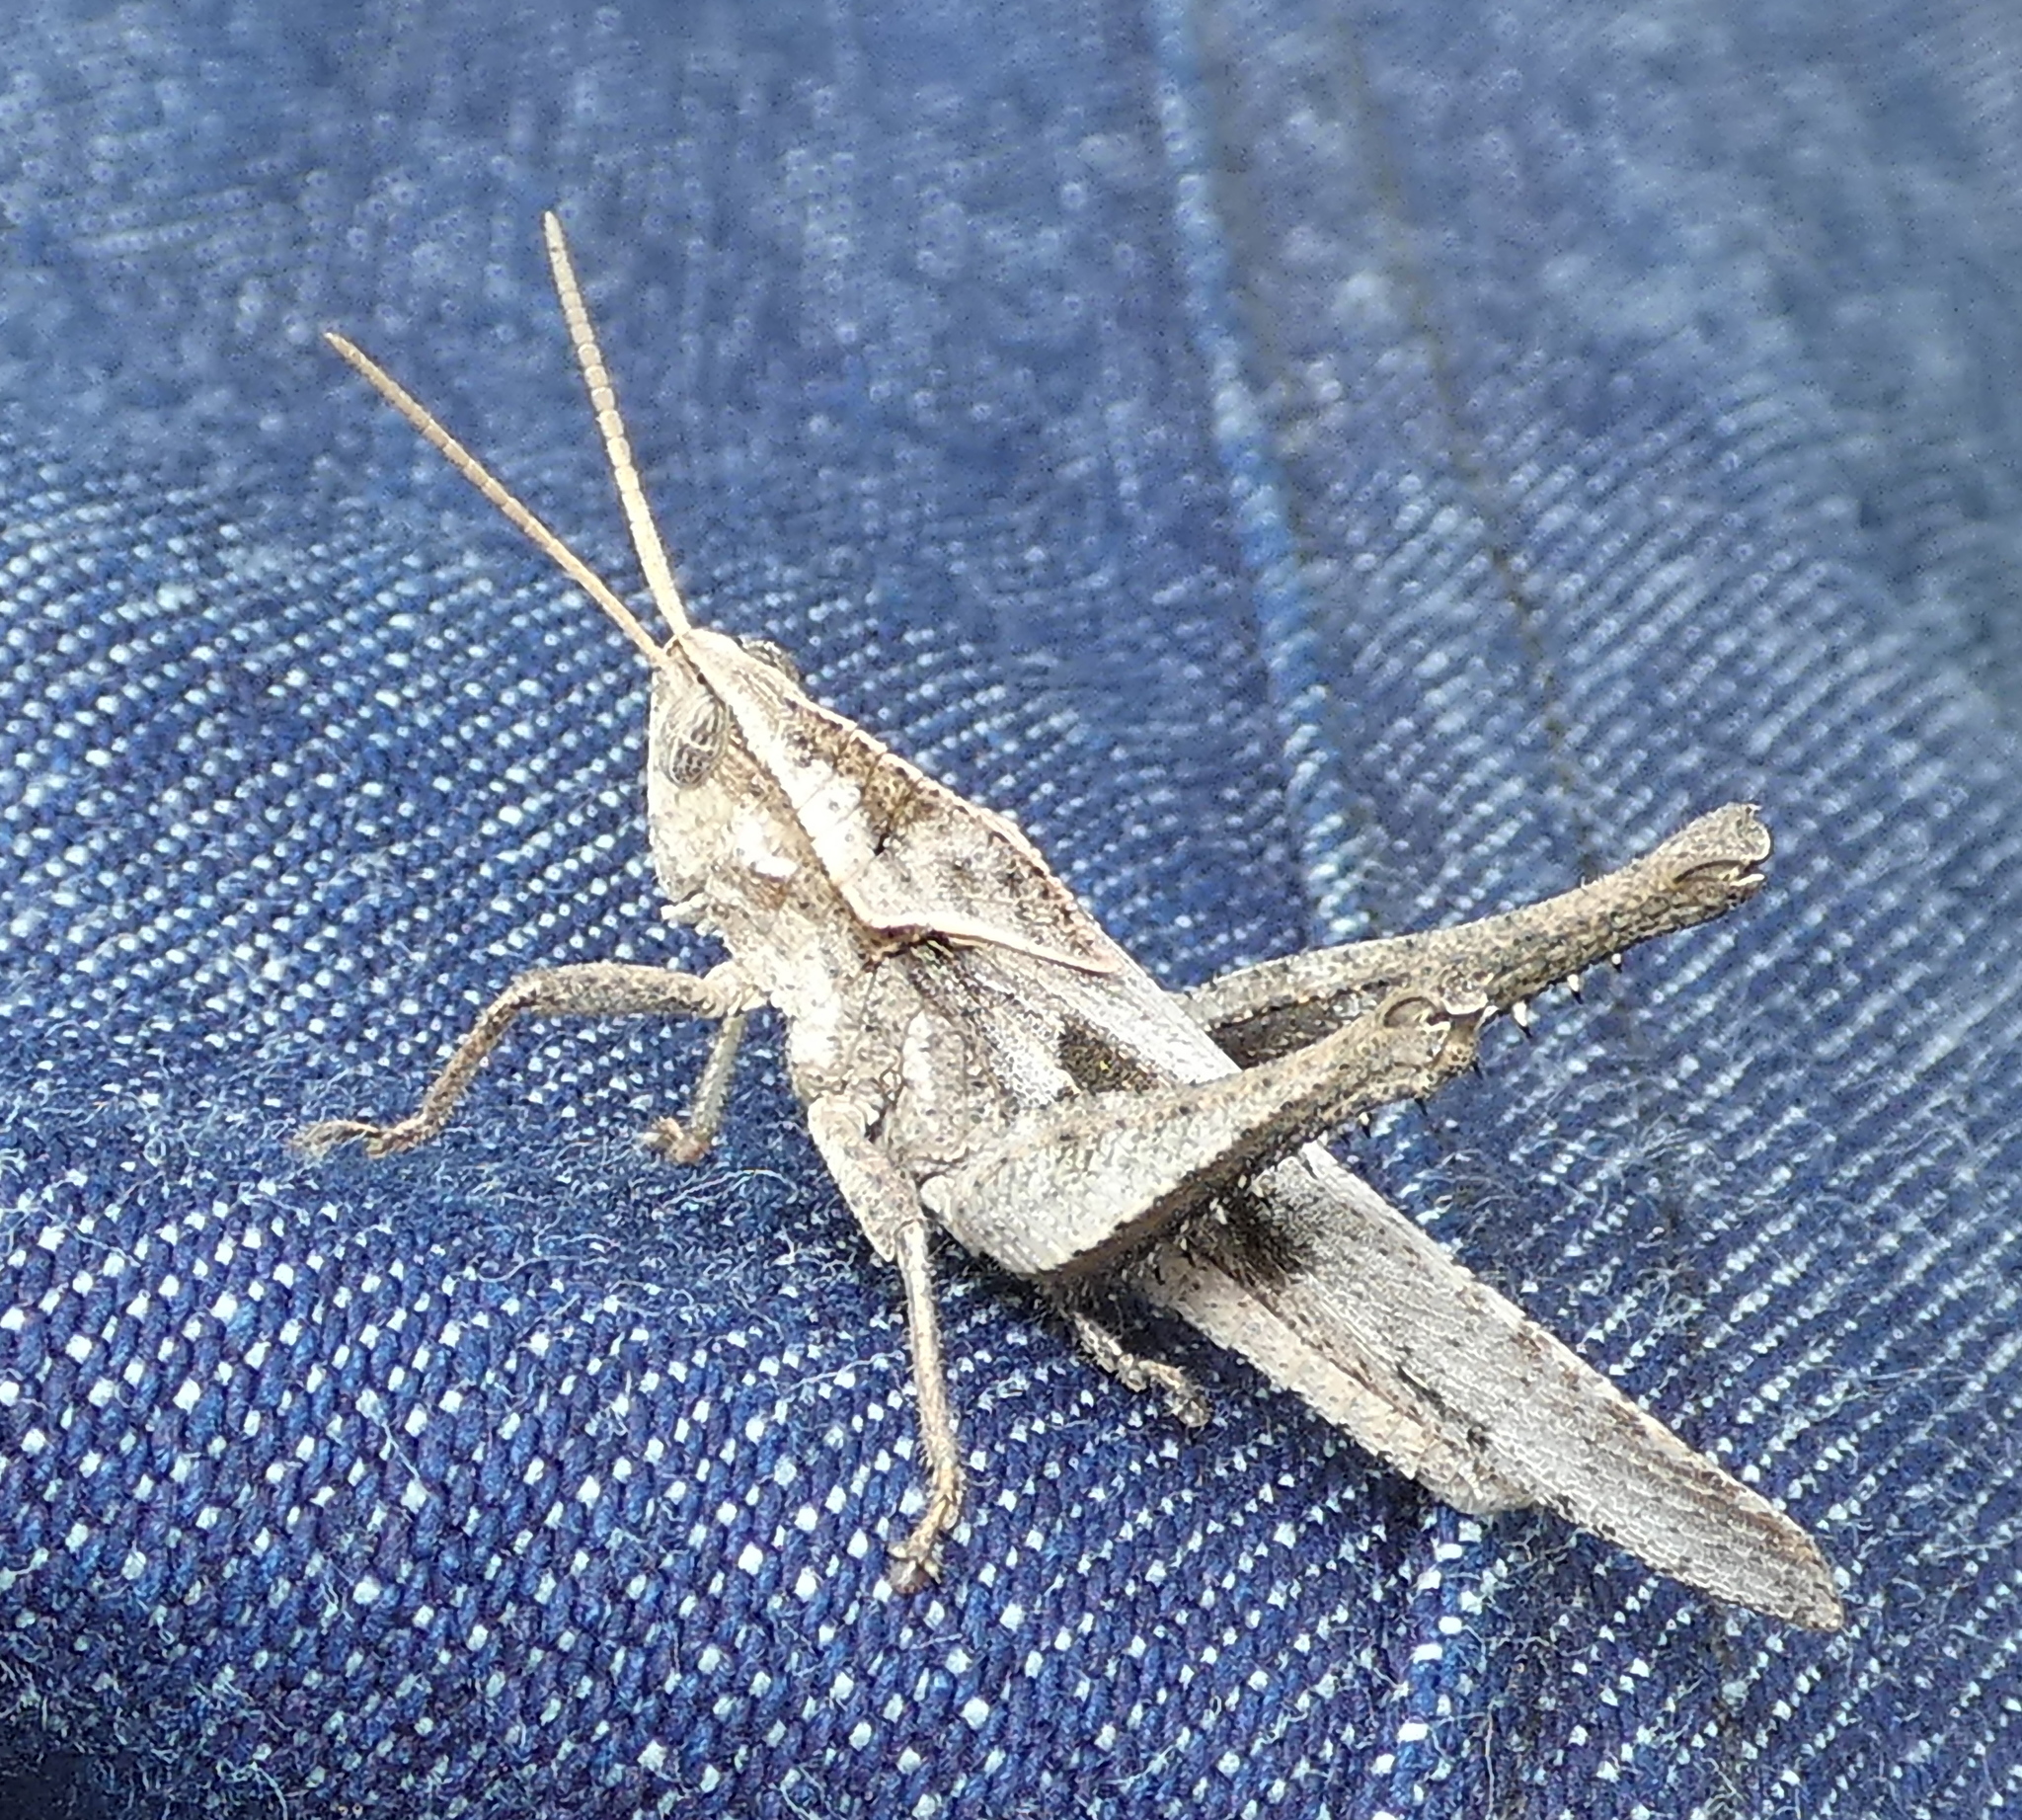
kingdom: Animalia
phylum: Arthropoda
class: Insecta
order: Orthoptera
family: Romaleidae
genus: Xyleus
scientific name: Xyleus discoideus
